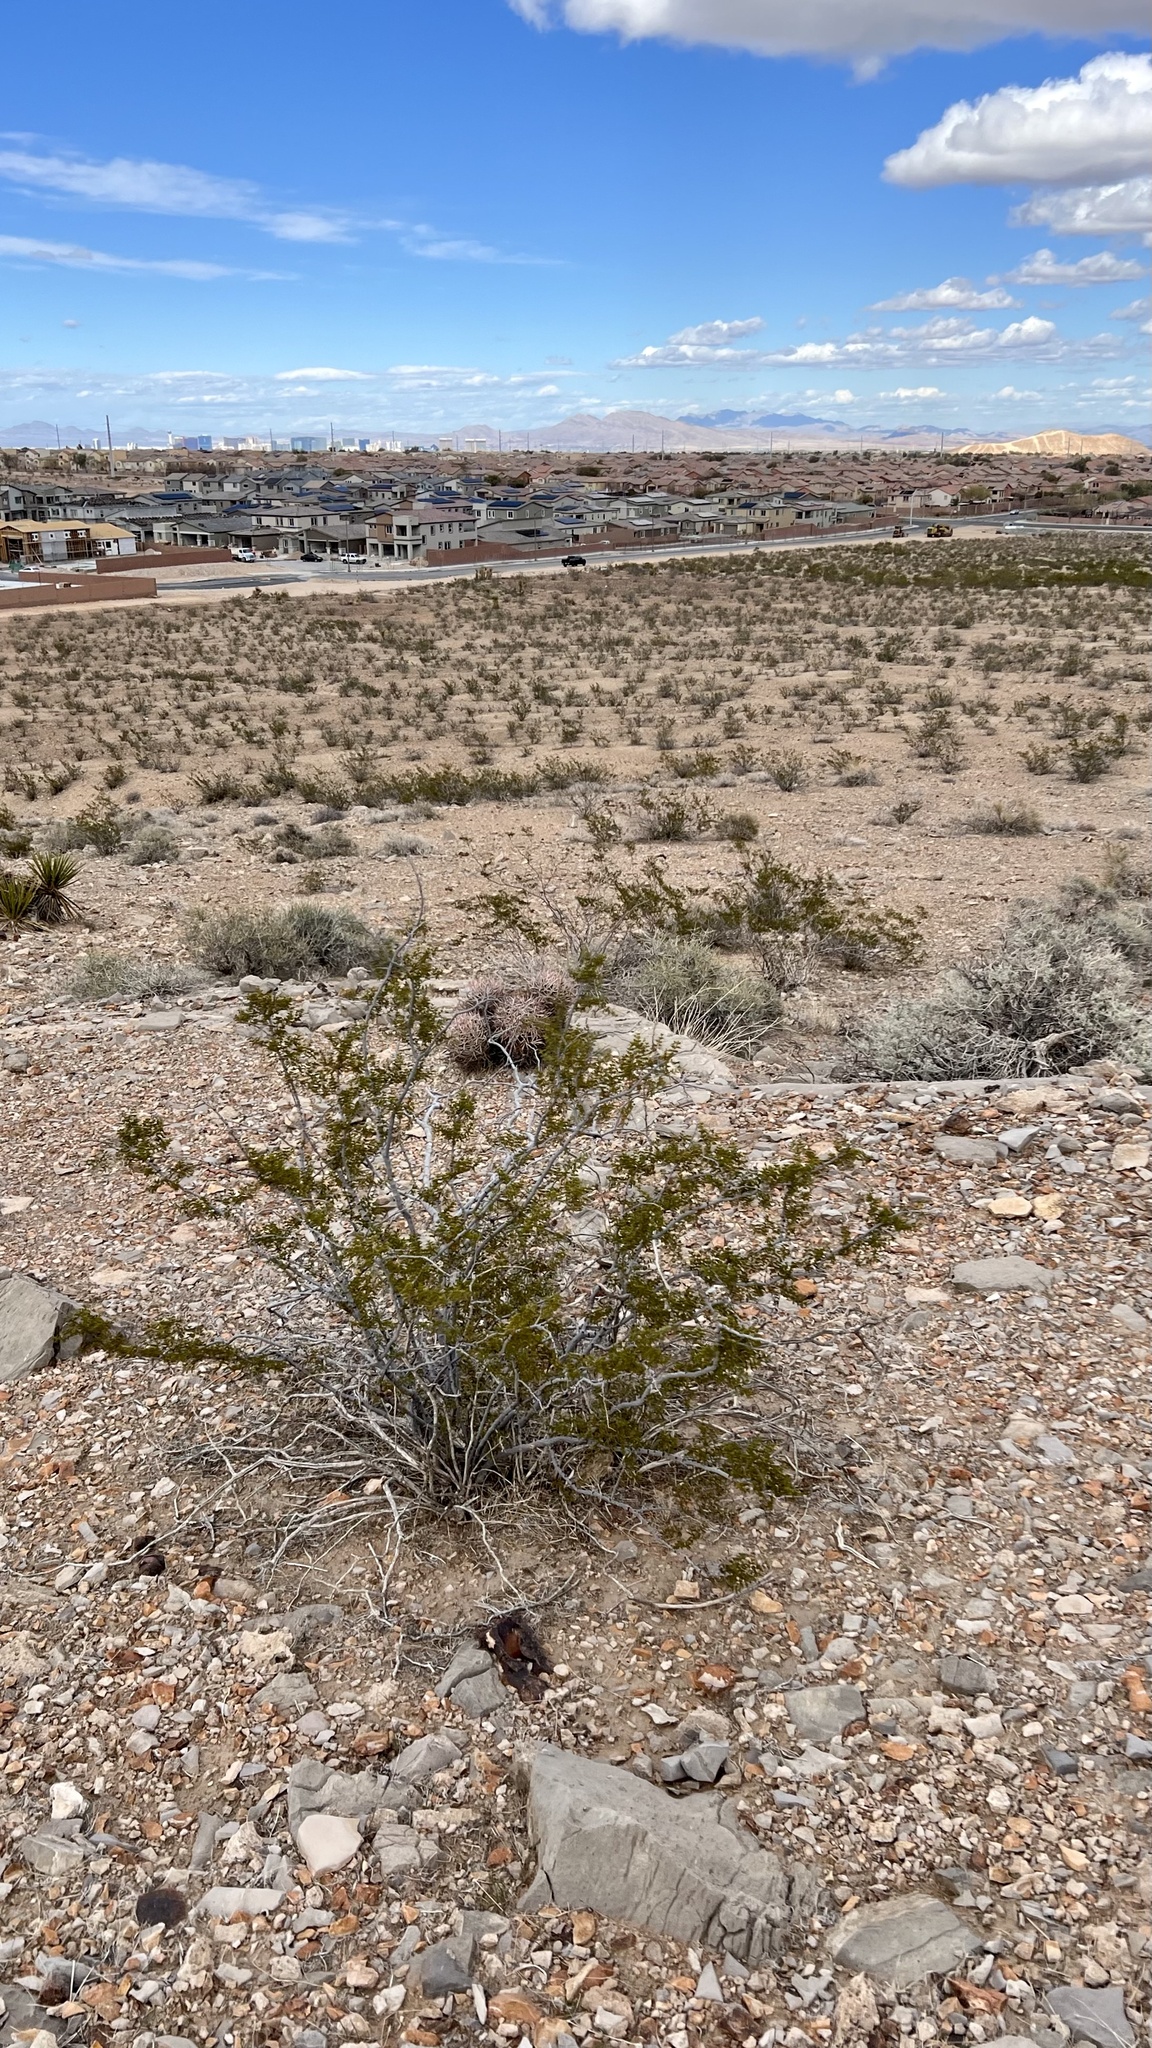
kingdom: Plantae
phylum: Tracheophyta
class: Magnoliopsida
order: Zygophyllales
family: Zygophyllaceae
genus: Larrea
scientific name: Larrea tridentata
